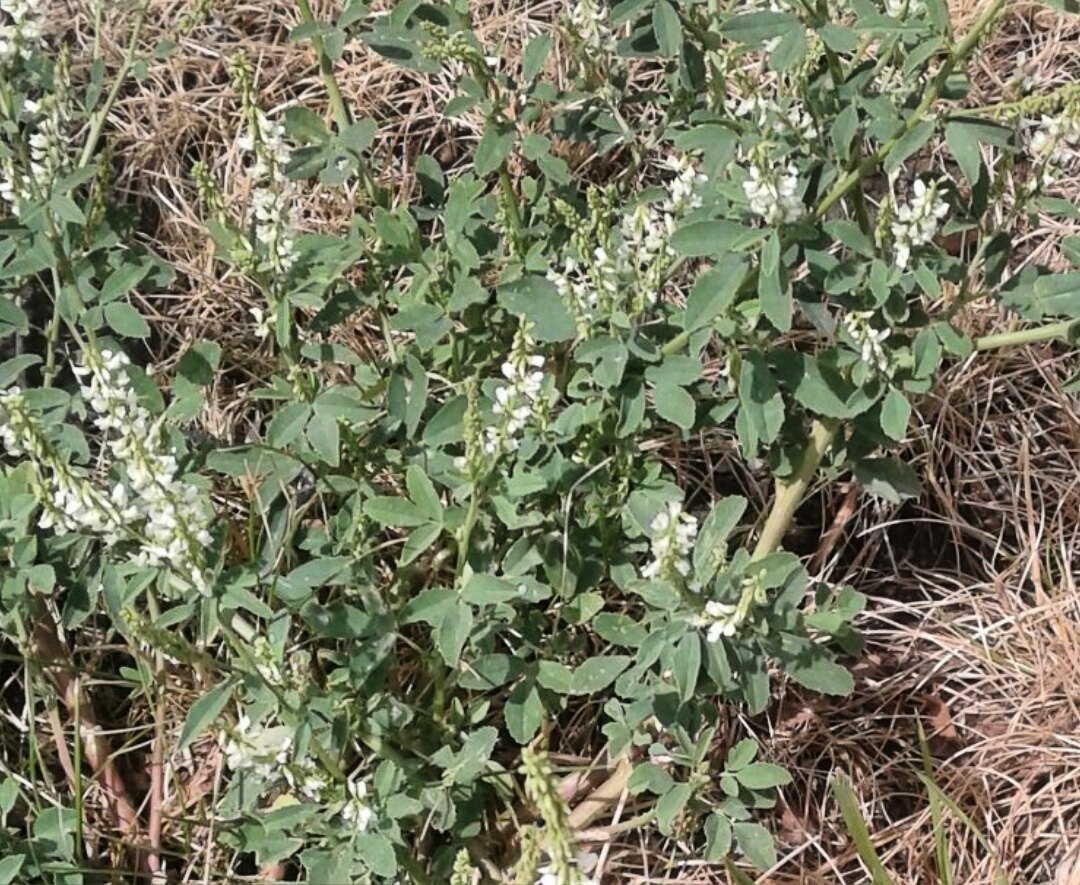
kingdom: Plantae
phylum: Tracheophyta
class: Magnoliopsida
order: Fabales
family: Fabaceae
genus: Melilotus
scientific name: Melilotus albus
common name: White melilot
